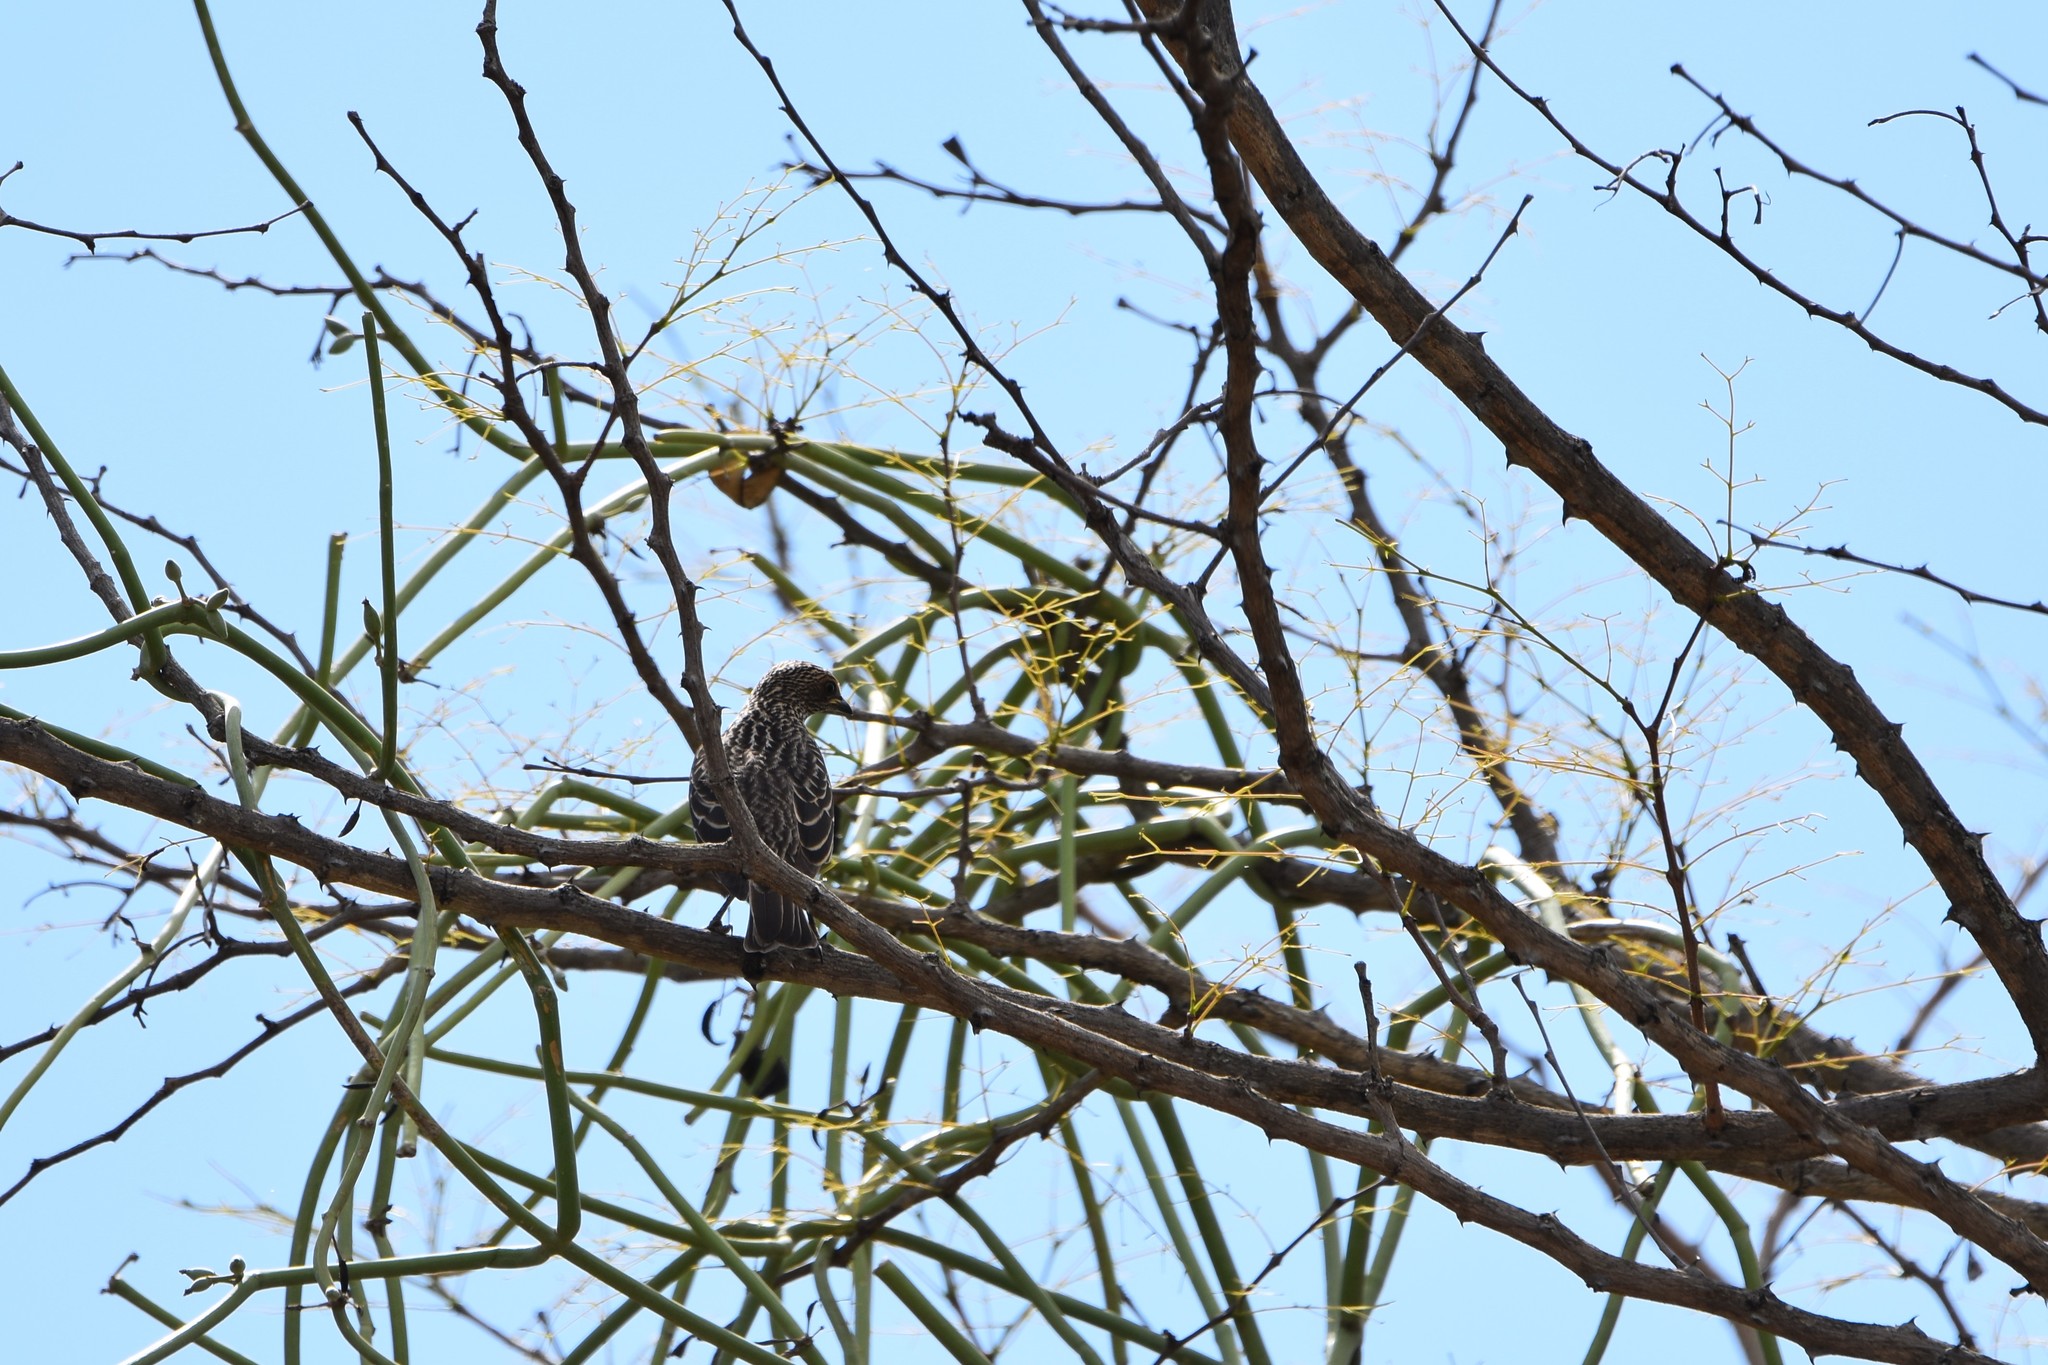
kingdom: Animalia
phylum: Chordata
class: Aves
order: Passeriformes
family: Sturnidae
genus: Cinnyricinclus
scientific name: Cinnyricinclus leucogaster
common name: Violet-backed starling
